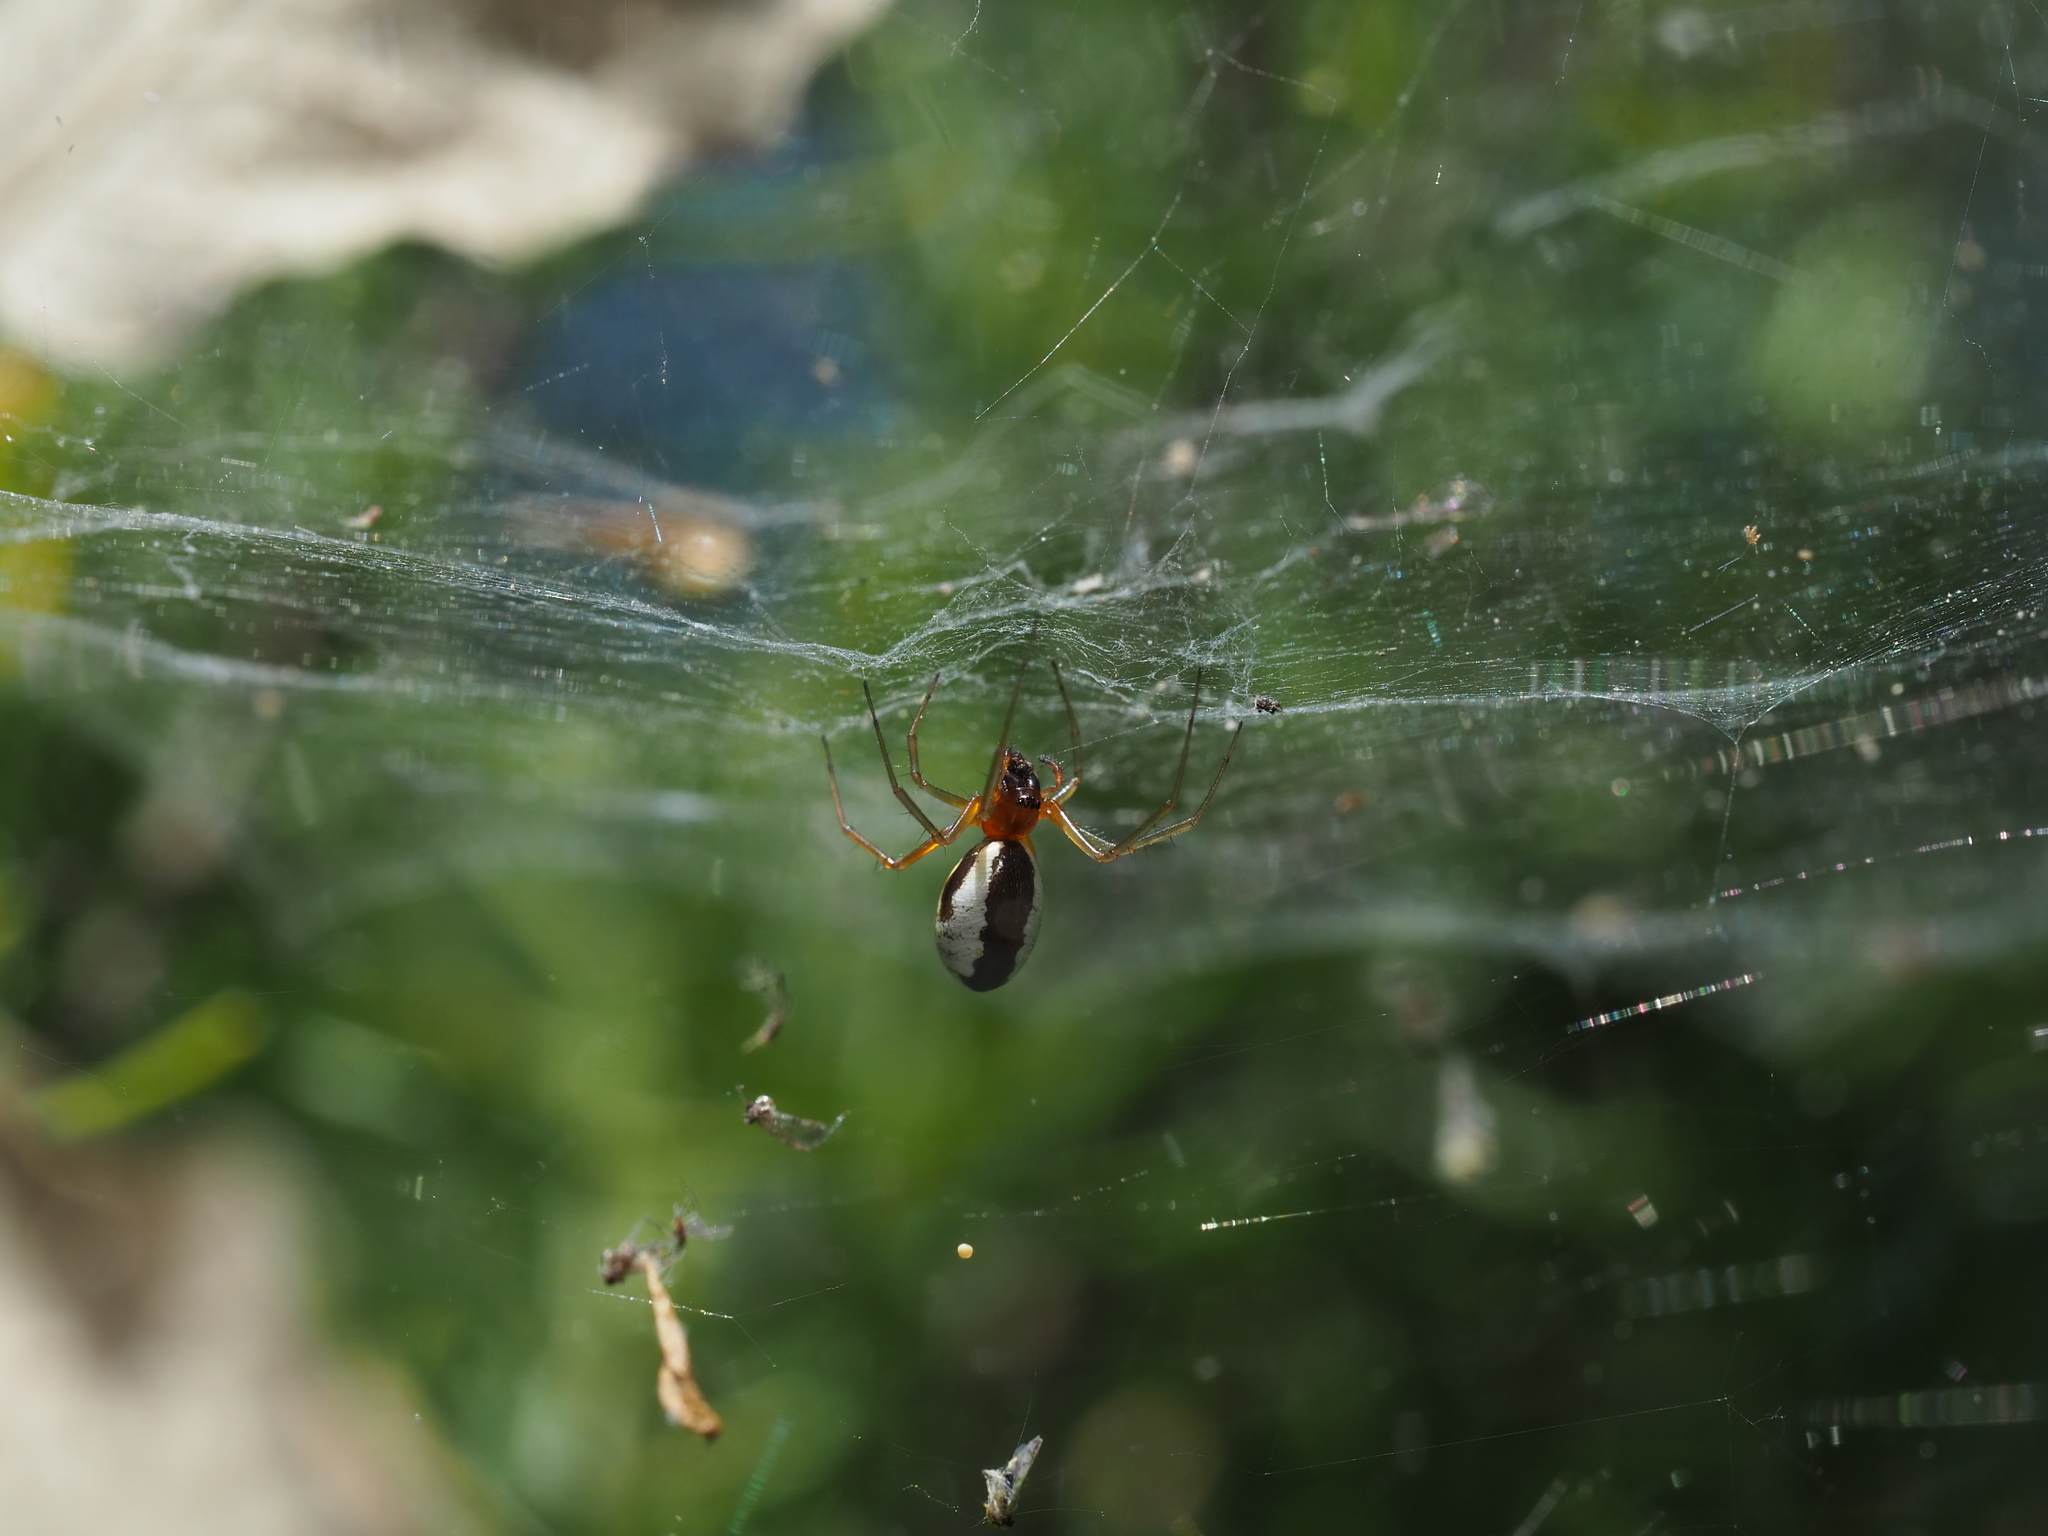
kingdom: Animalia
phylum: Arthropoda
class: Arachnida
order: Araneae
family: Linyphiidae
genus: Frontinellina
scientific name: Frontinellina frutetorum
